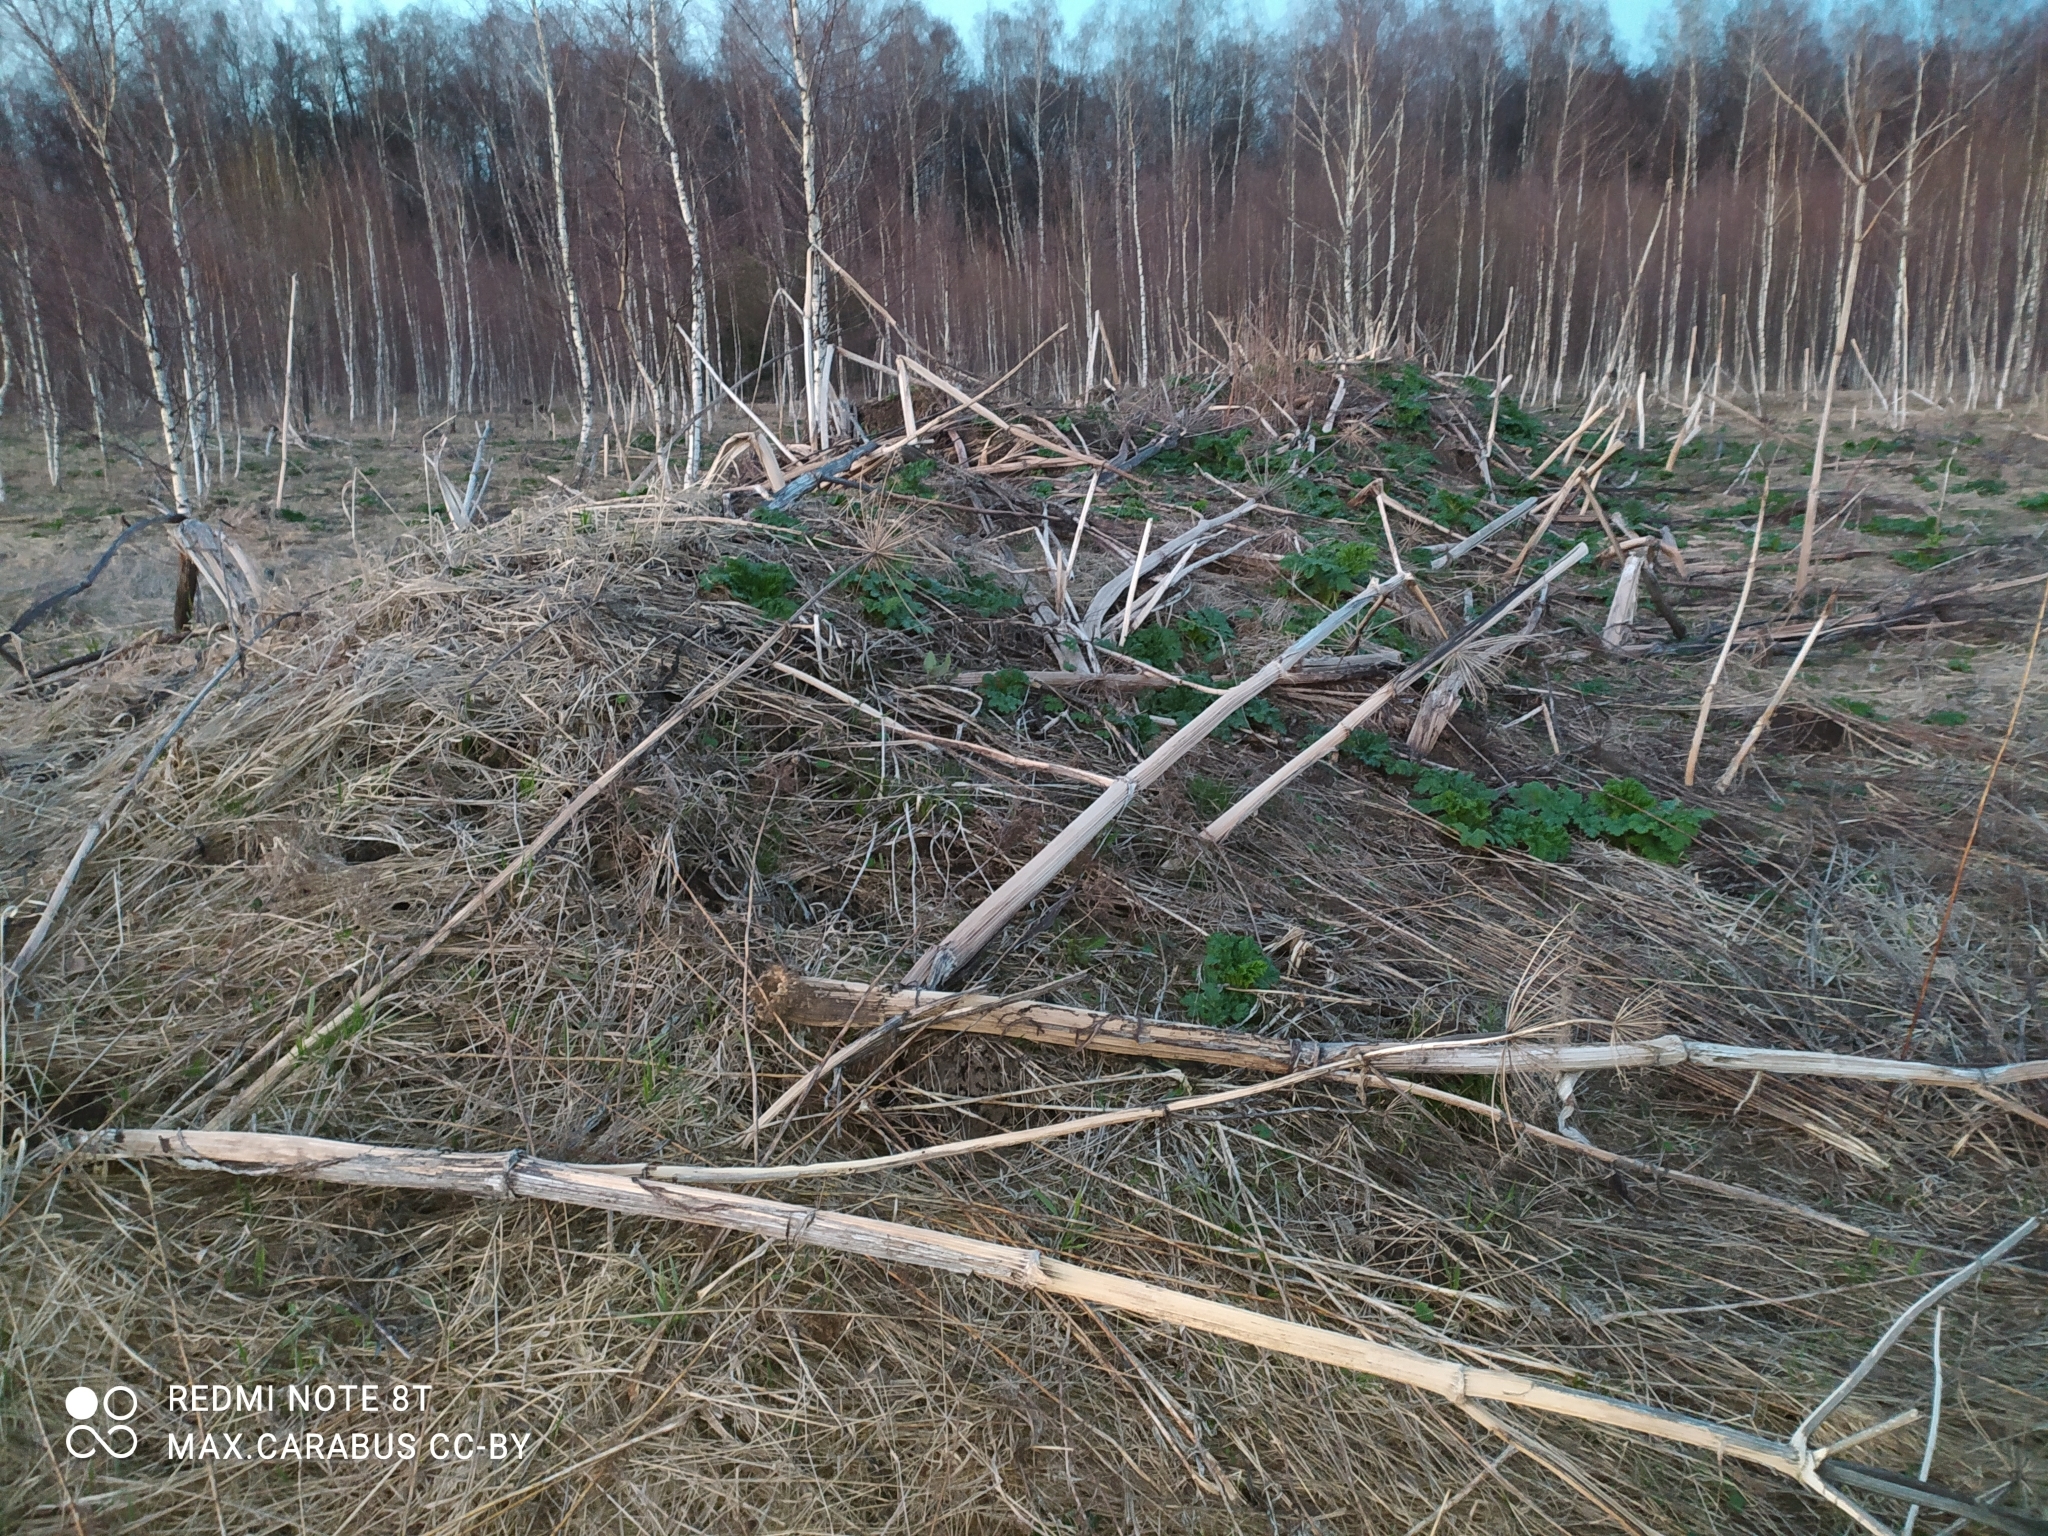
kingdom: Plantae
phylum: Tracheophyta
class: Magnoliopsida
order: Apiales
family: Apiaceae
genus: Heracleum
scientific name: Heracleum sosnowskyi
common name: Sosnowsky's hogweed
